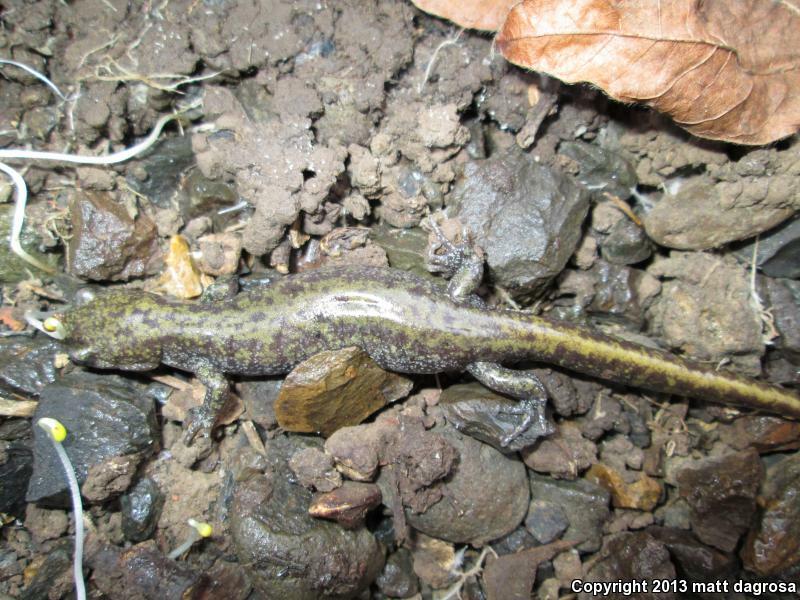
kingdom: Animalia
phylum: Chordata
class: Amphibia
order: Caudata
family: Ambystomatidae
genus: Ambystoma
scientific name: Ambystoma macrodactylum
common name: Long-toed salamander
